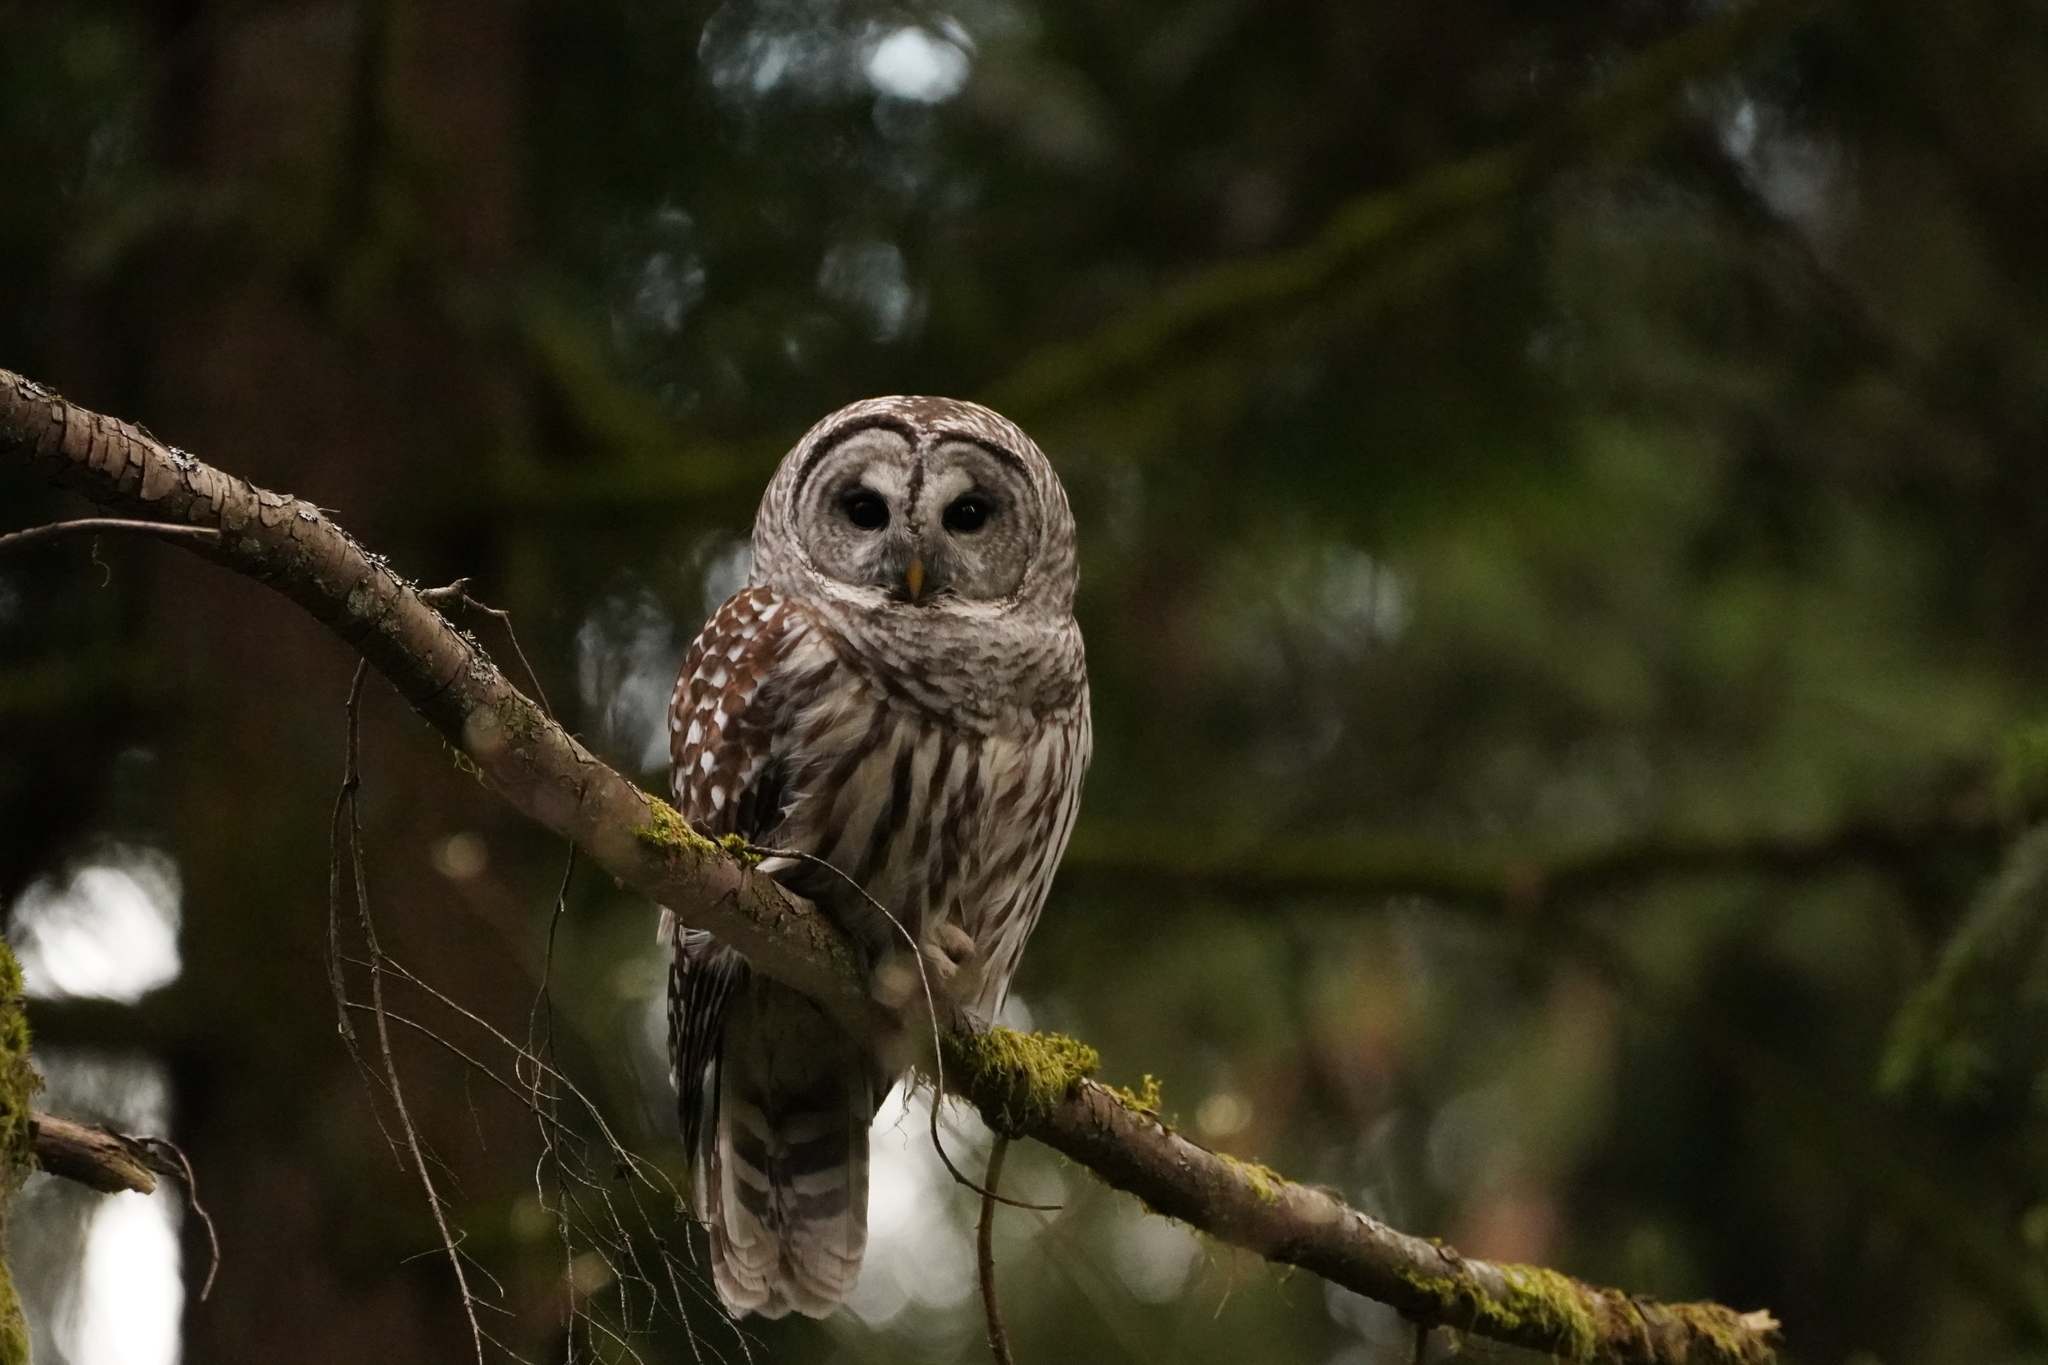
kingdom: Animalia
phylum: Chordata
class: Aves
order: Strigiformes
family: Strigidae
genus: Strix
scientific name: Strix varia
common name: Barred owl
